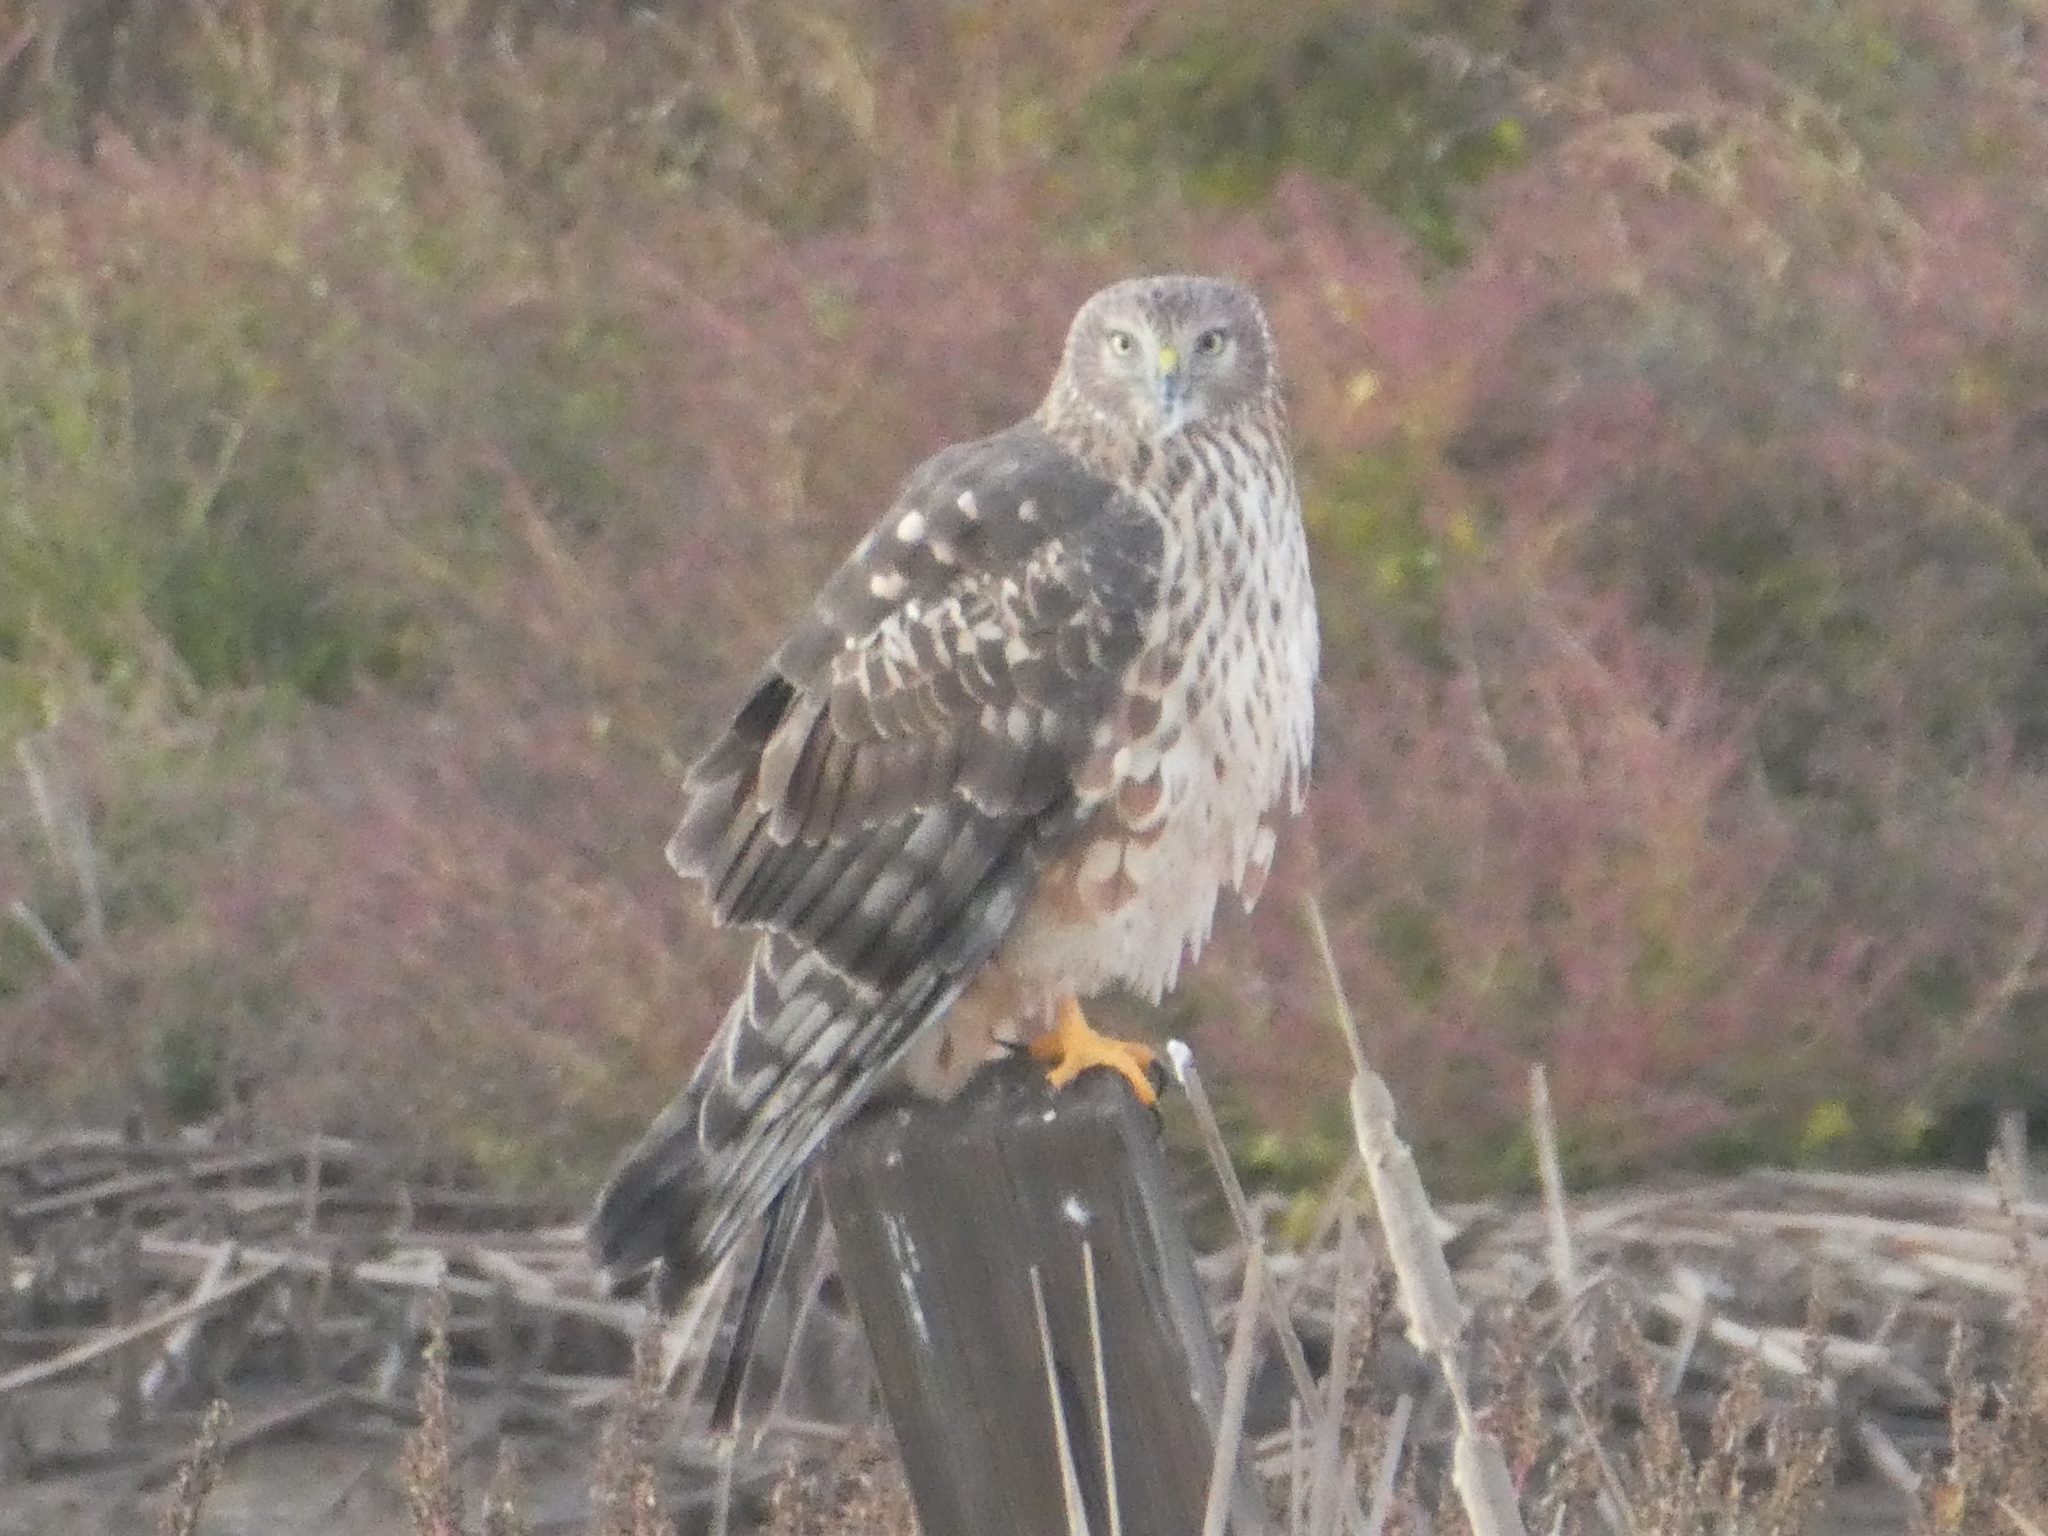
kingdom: Animalia
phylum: Chordata
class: Aves
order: Accipitriformes
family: Accipitridae
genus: Circus
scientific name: Circus cyaneus
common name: Hen harrier
